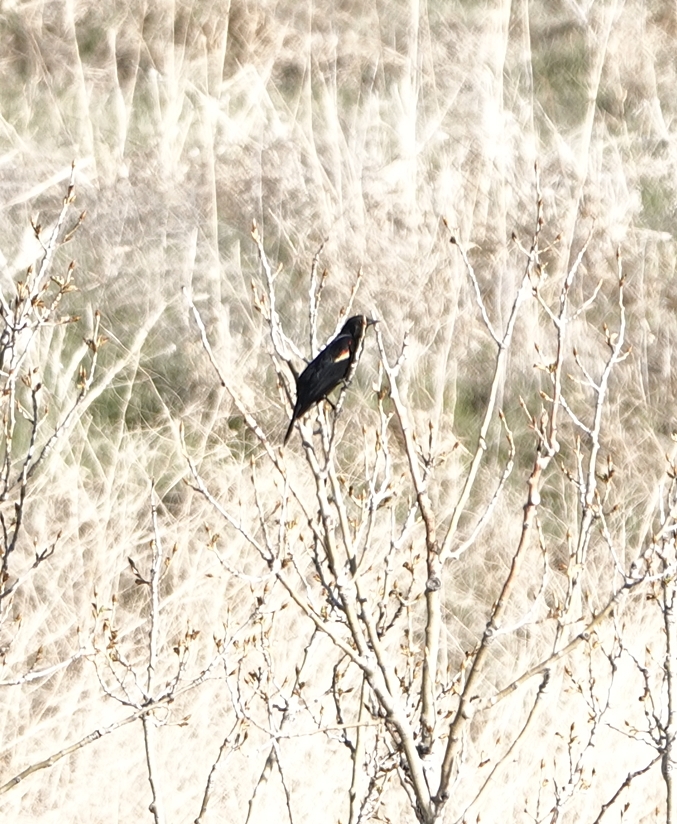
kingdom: Animalia
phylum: Chordata
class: Aves
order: Passeriformes
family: Icteridae
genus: Agelaius
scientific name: Agelaius phoeniceus
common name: Red-winged blackbird
